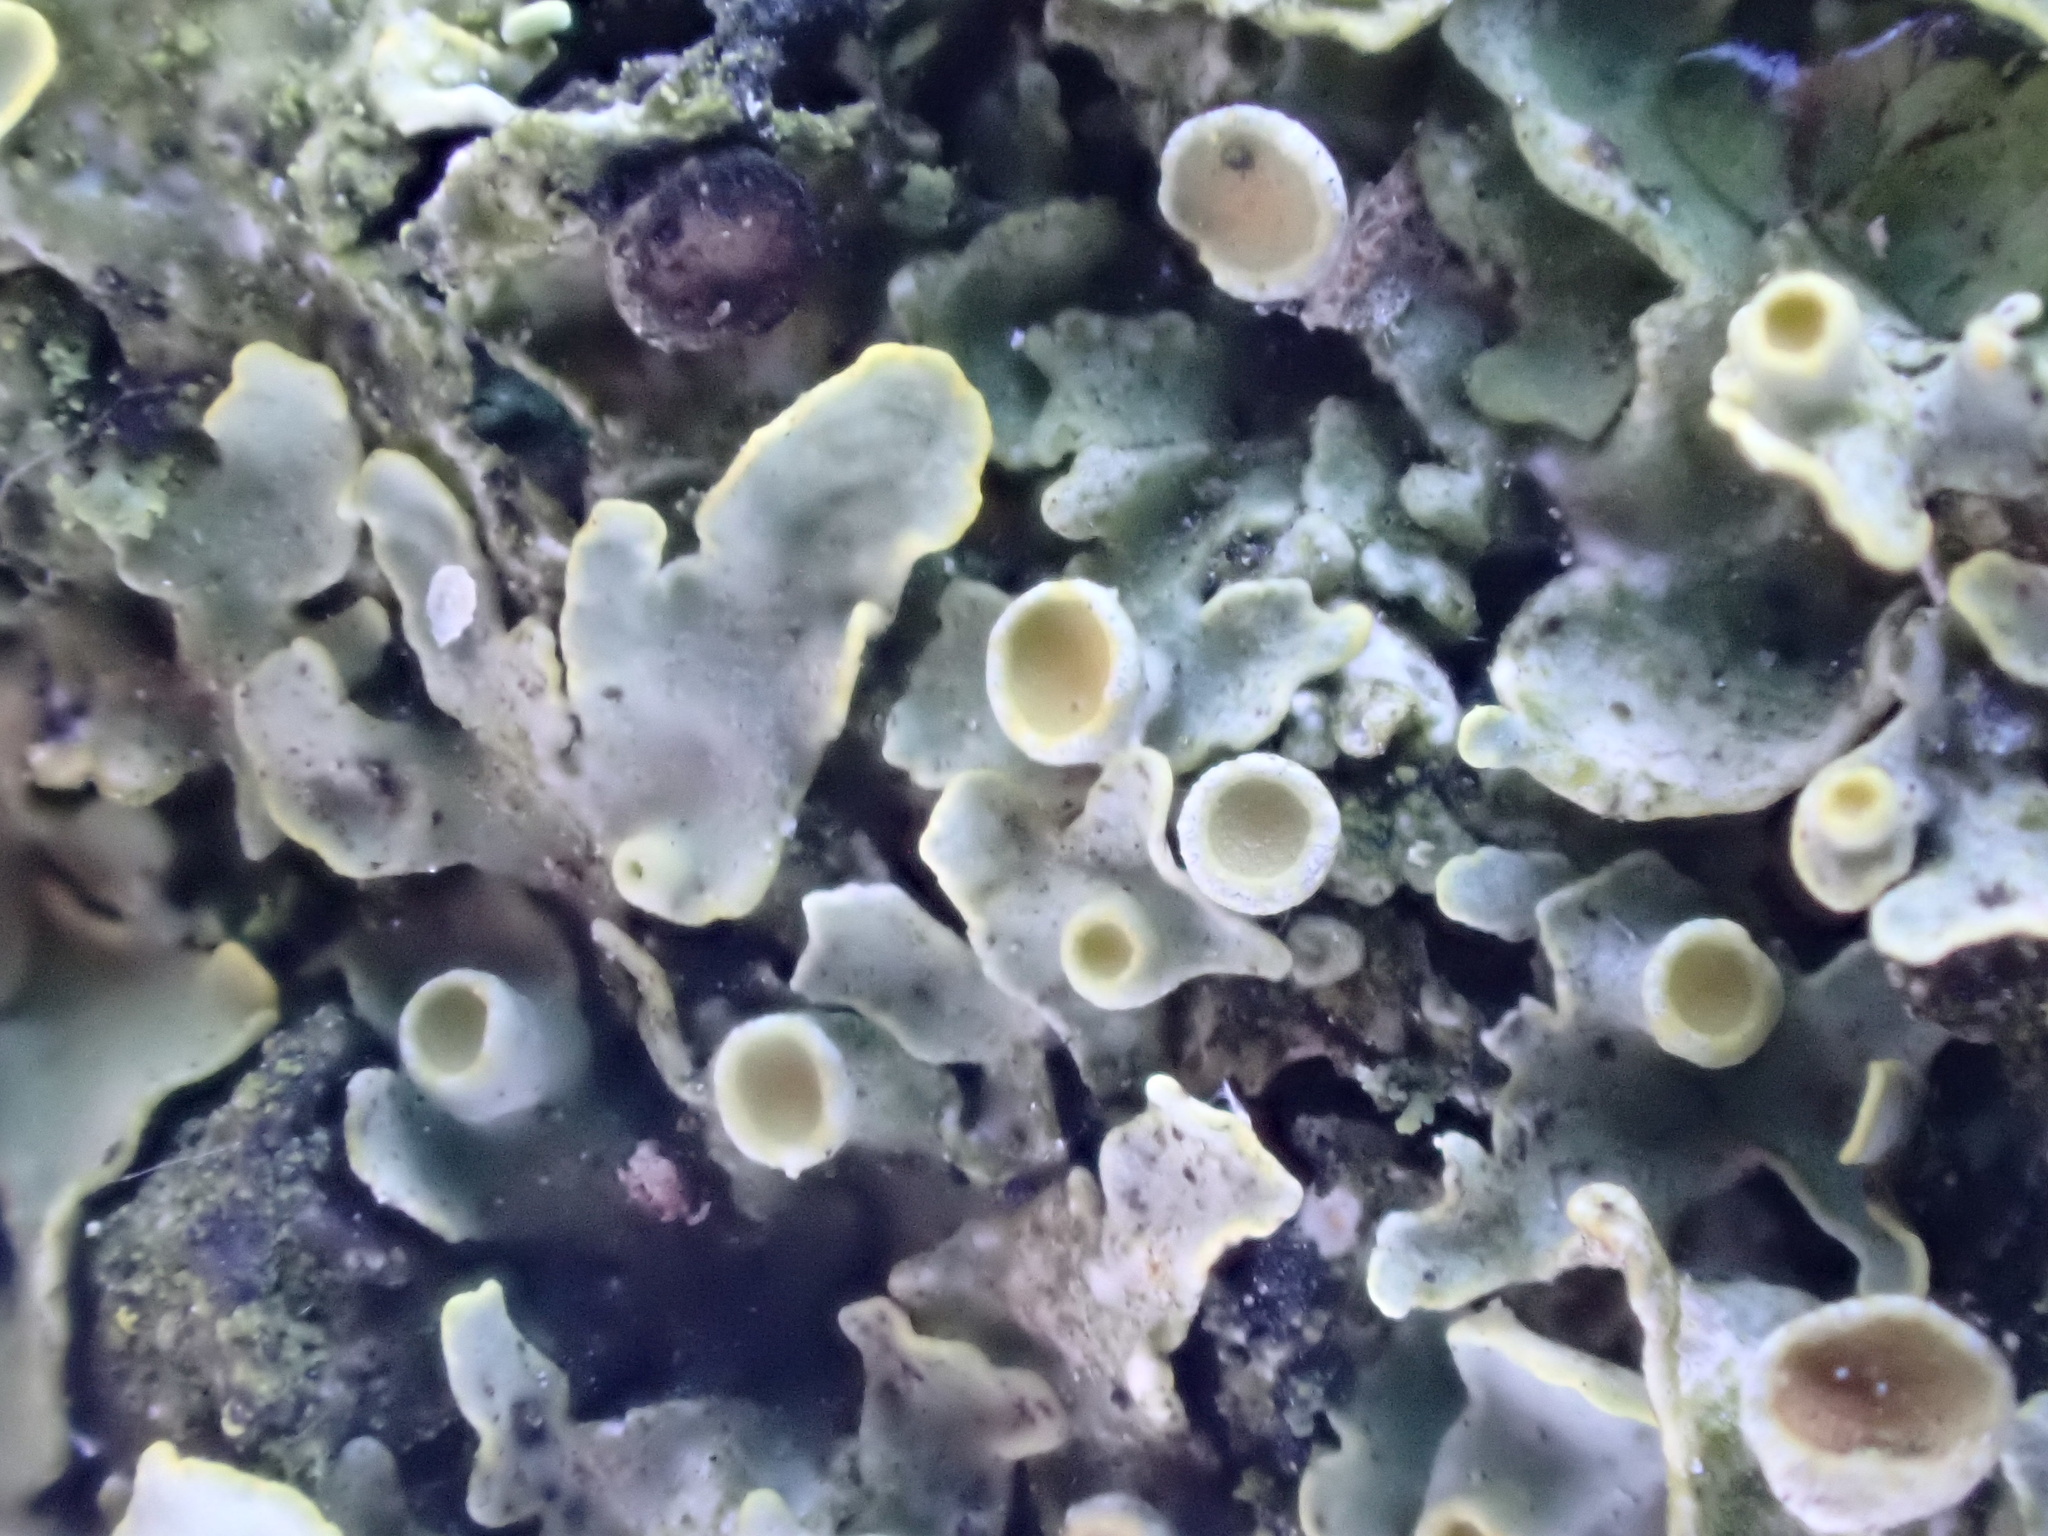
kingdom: Fungi
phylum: Ascomycota
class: Lecanoromycetes
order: Teloschistales
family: Teloschistaceae
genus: Xanthoria
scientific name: Xanthoria parietina
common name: Common orange lichen
